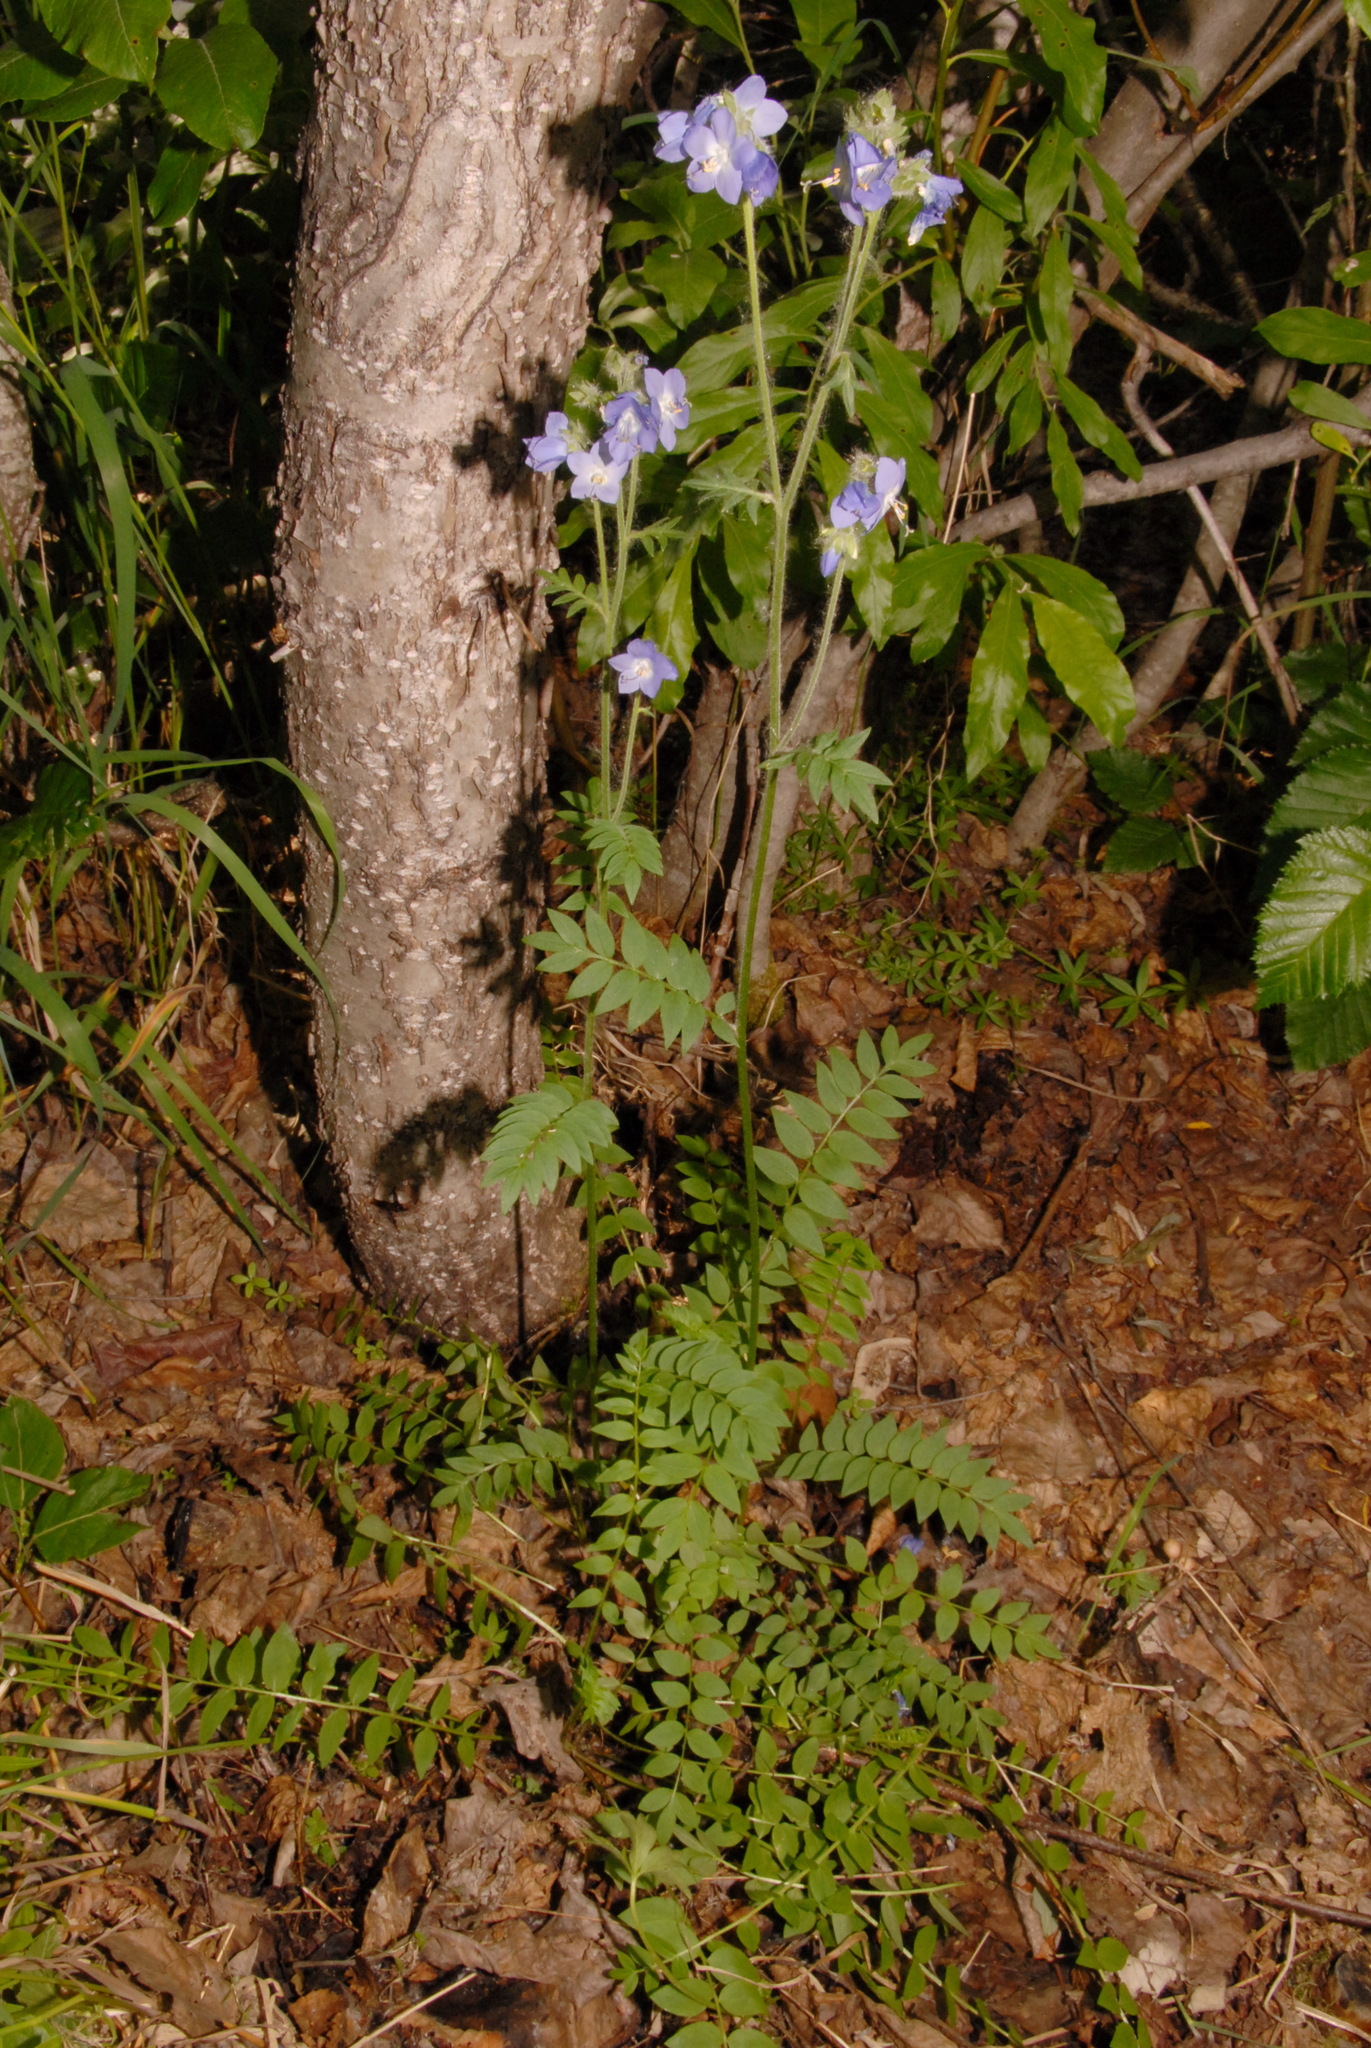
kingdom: Plantae
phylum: Tracheophyta
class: Magnoliopsida
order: Ericales
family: Polemoniaceae
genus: Polemonium
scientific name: Polemonium acutiflorum
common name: Tall jacob's-ladder
